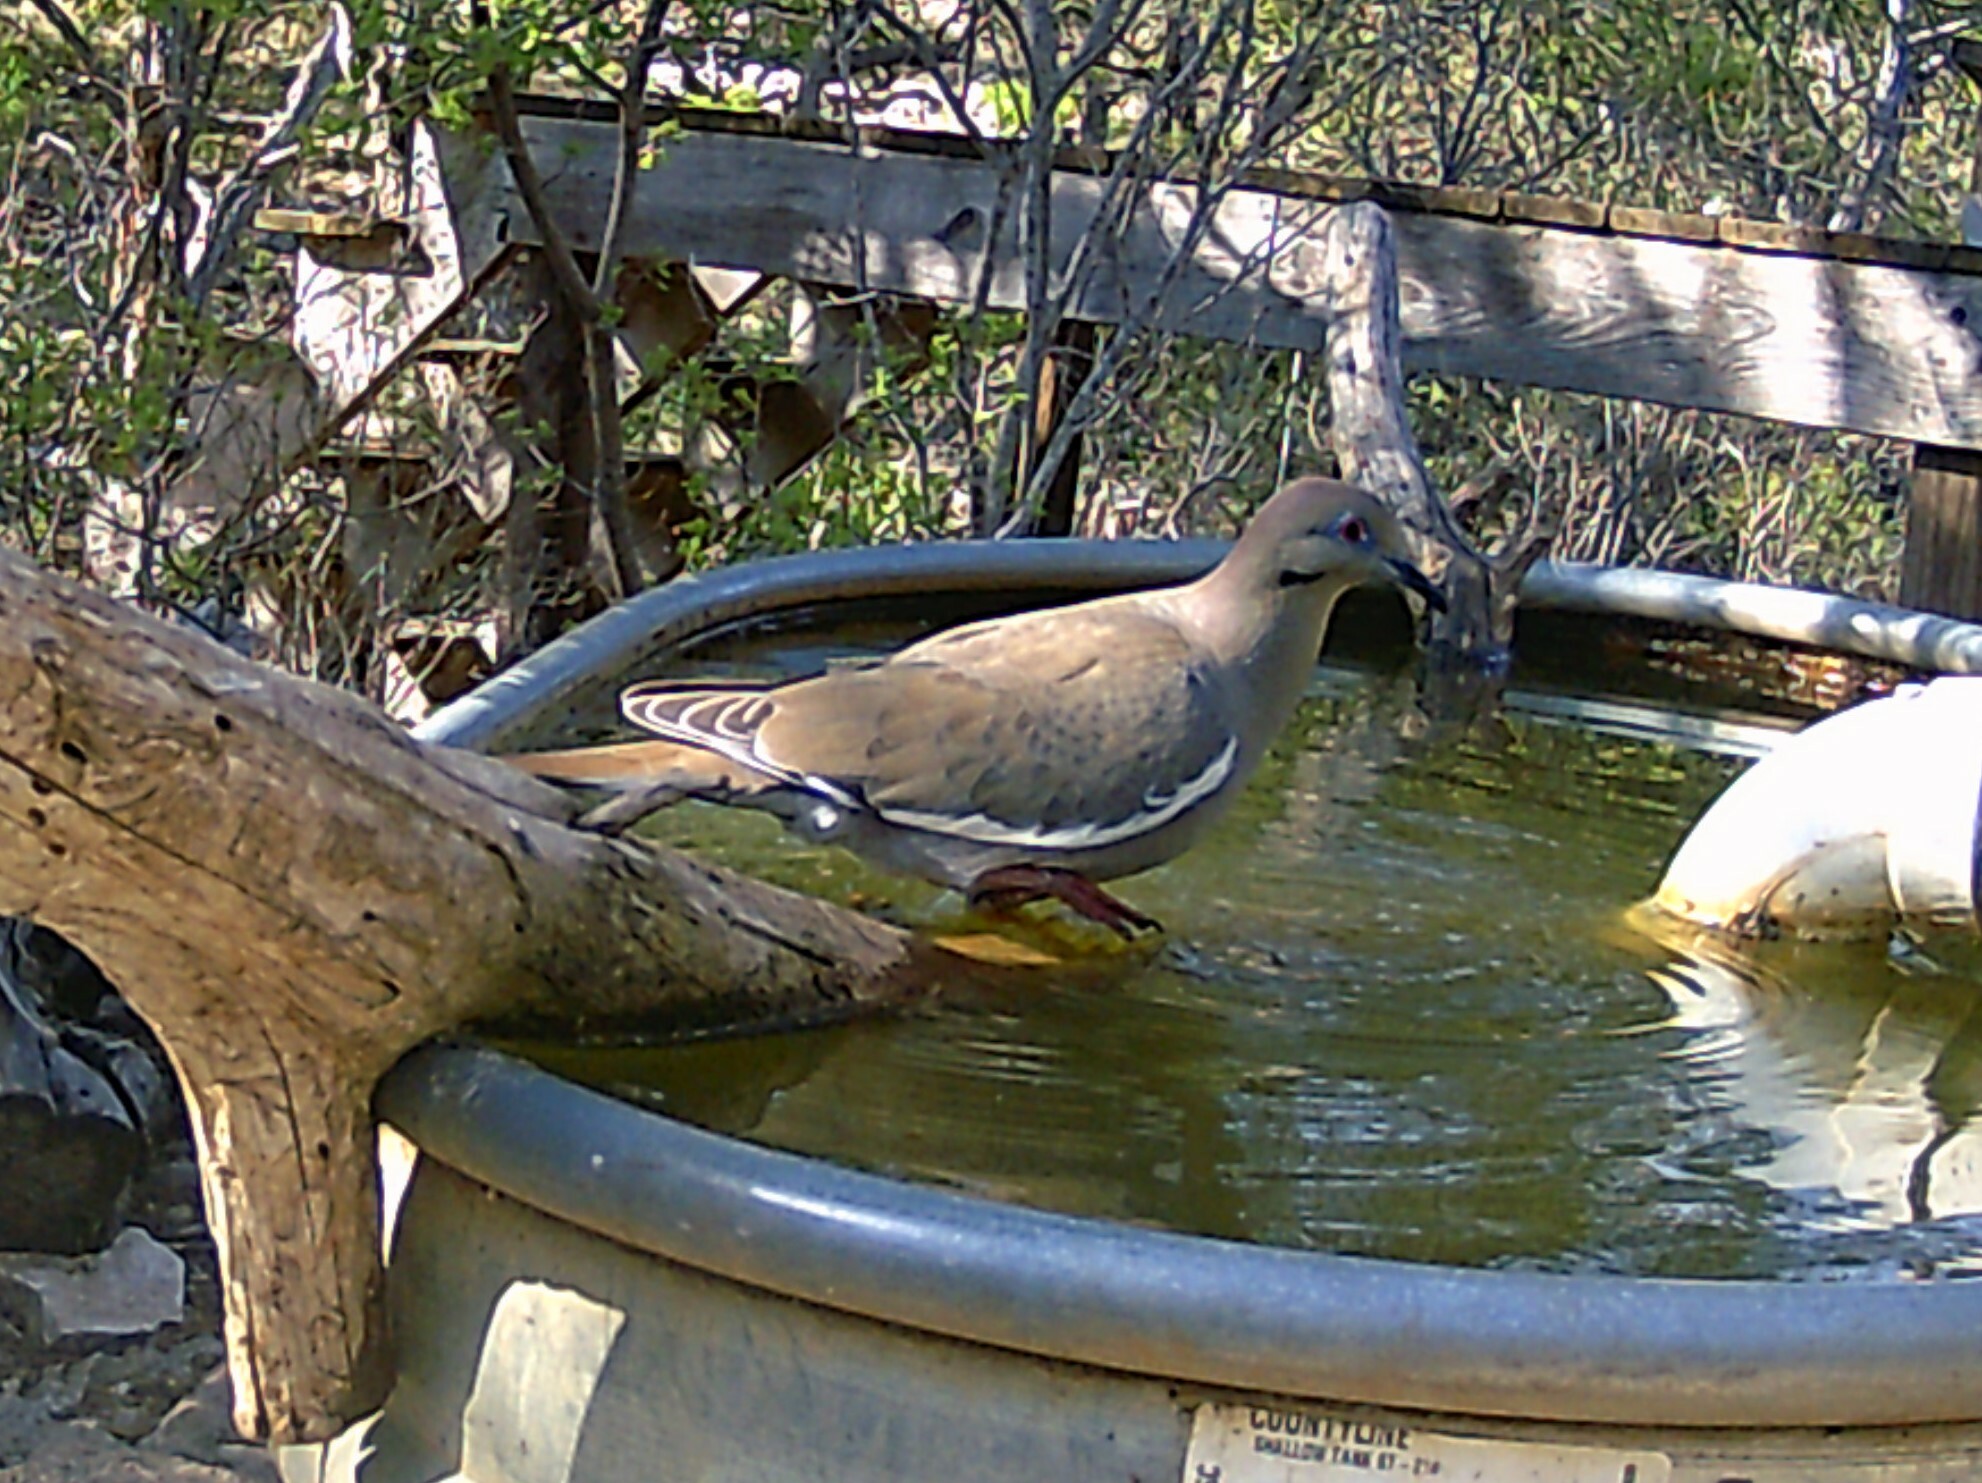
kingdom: Animalia
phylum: Chordata
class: Aves
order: Columbiformes
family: Columbidae
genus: Zenaida
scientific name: Zenaida asiatica
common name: White-winged dove
